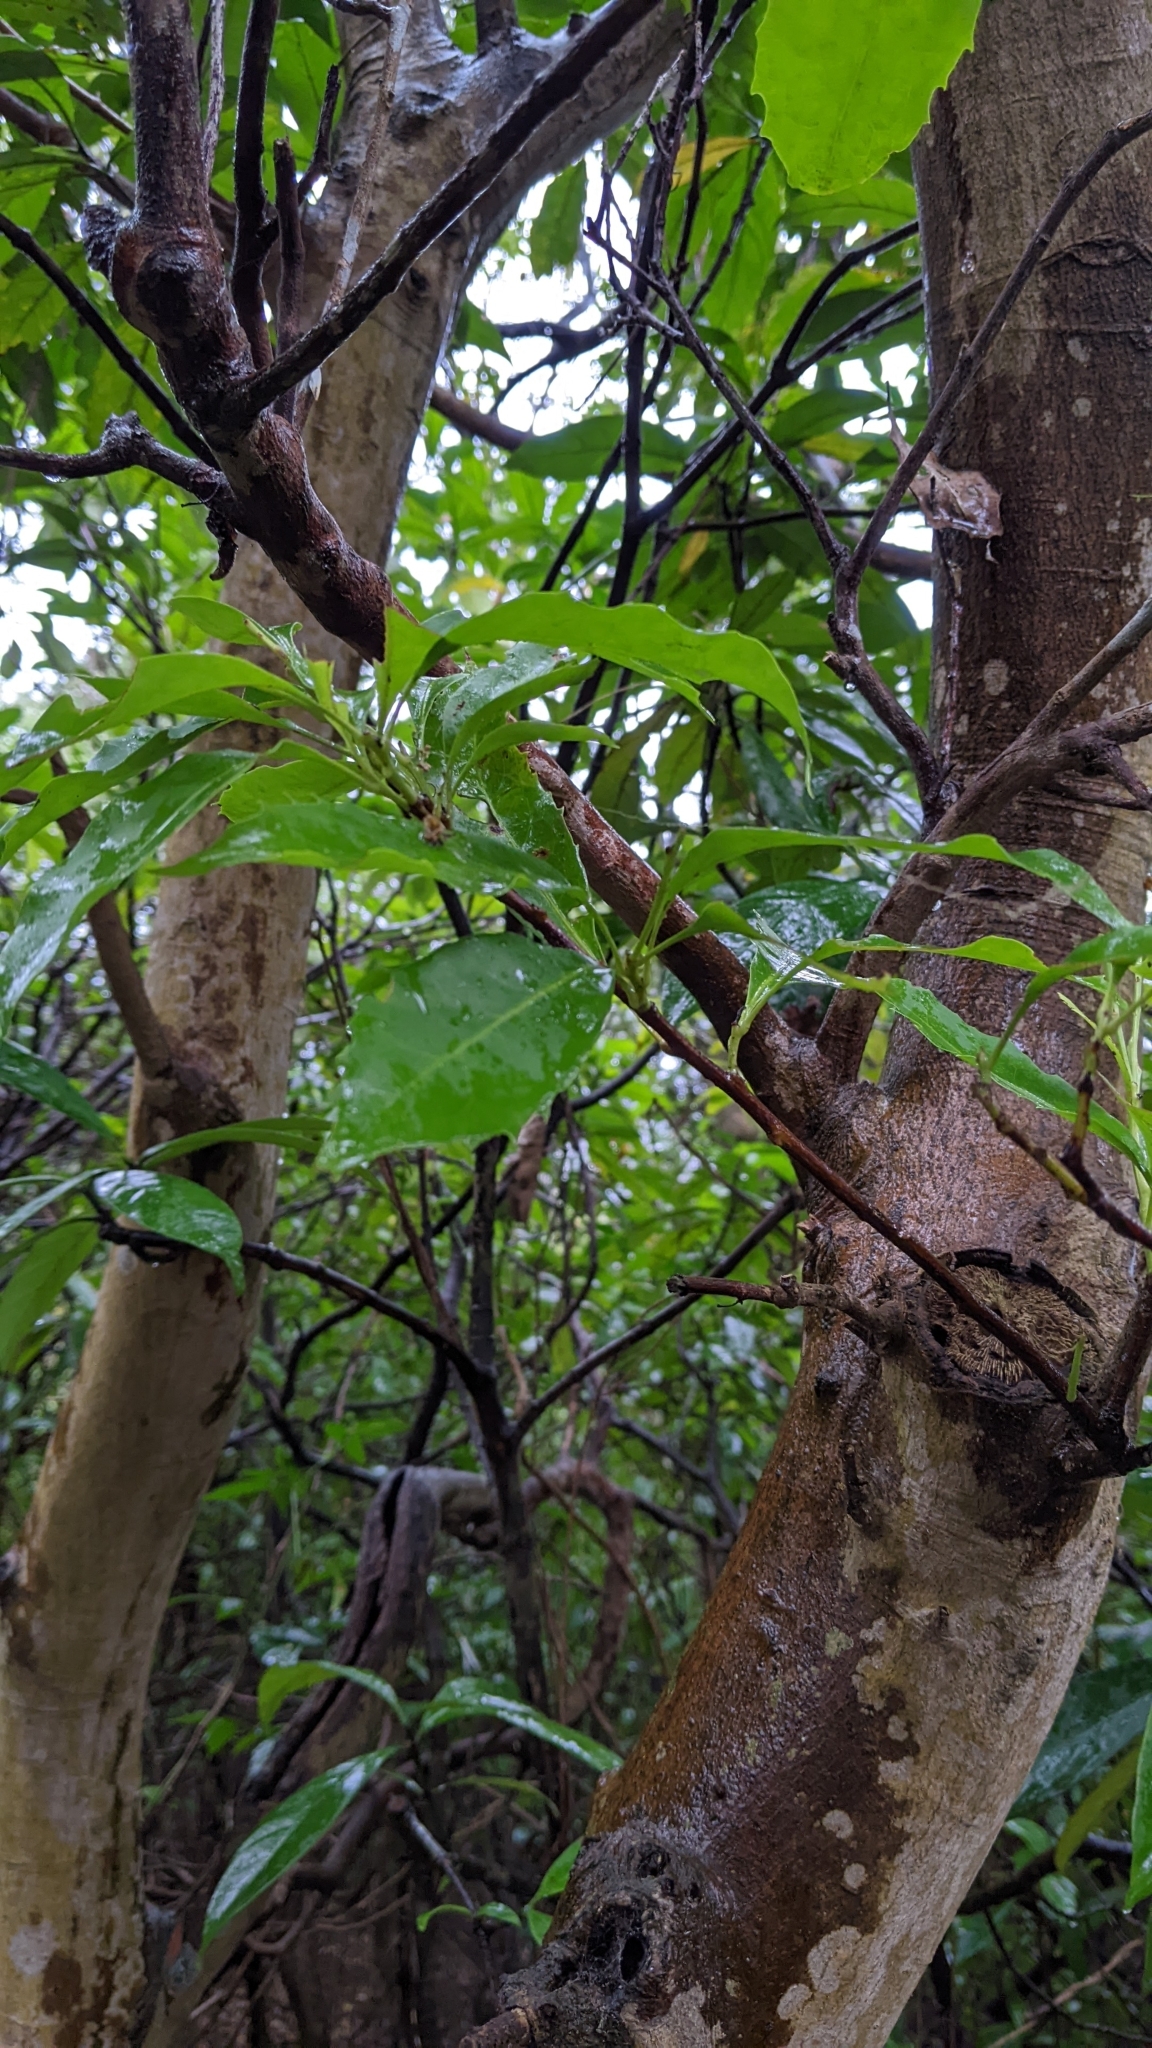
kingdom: Plantae
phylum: Tracheophyta
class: Magnoliopsida
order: Proteales
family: Proteaceae
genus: Helicia
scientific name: Helicia cochinchinensis
